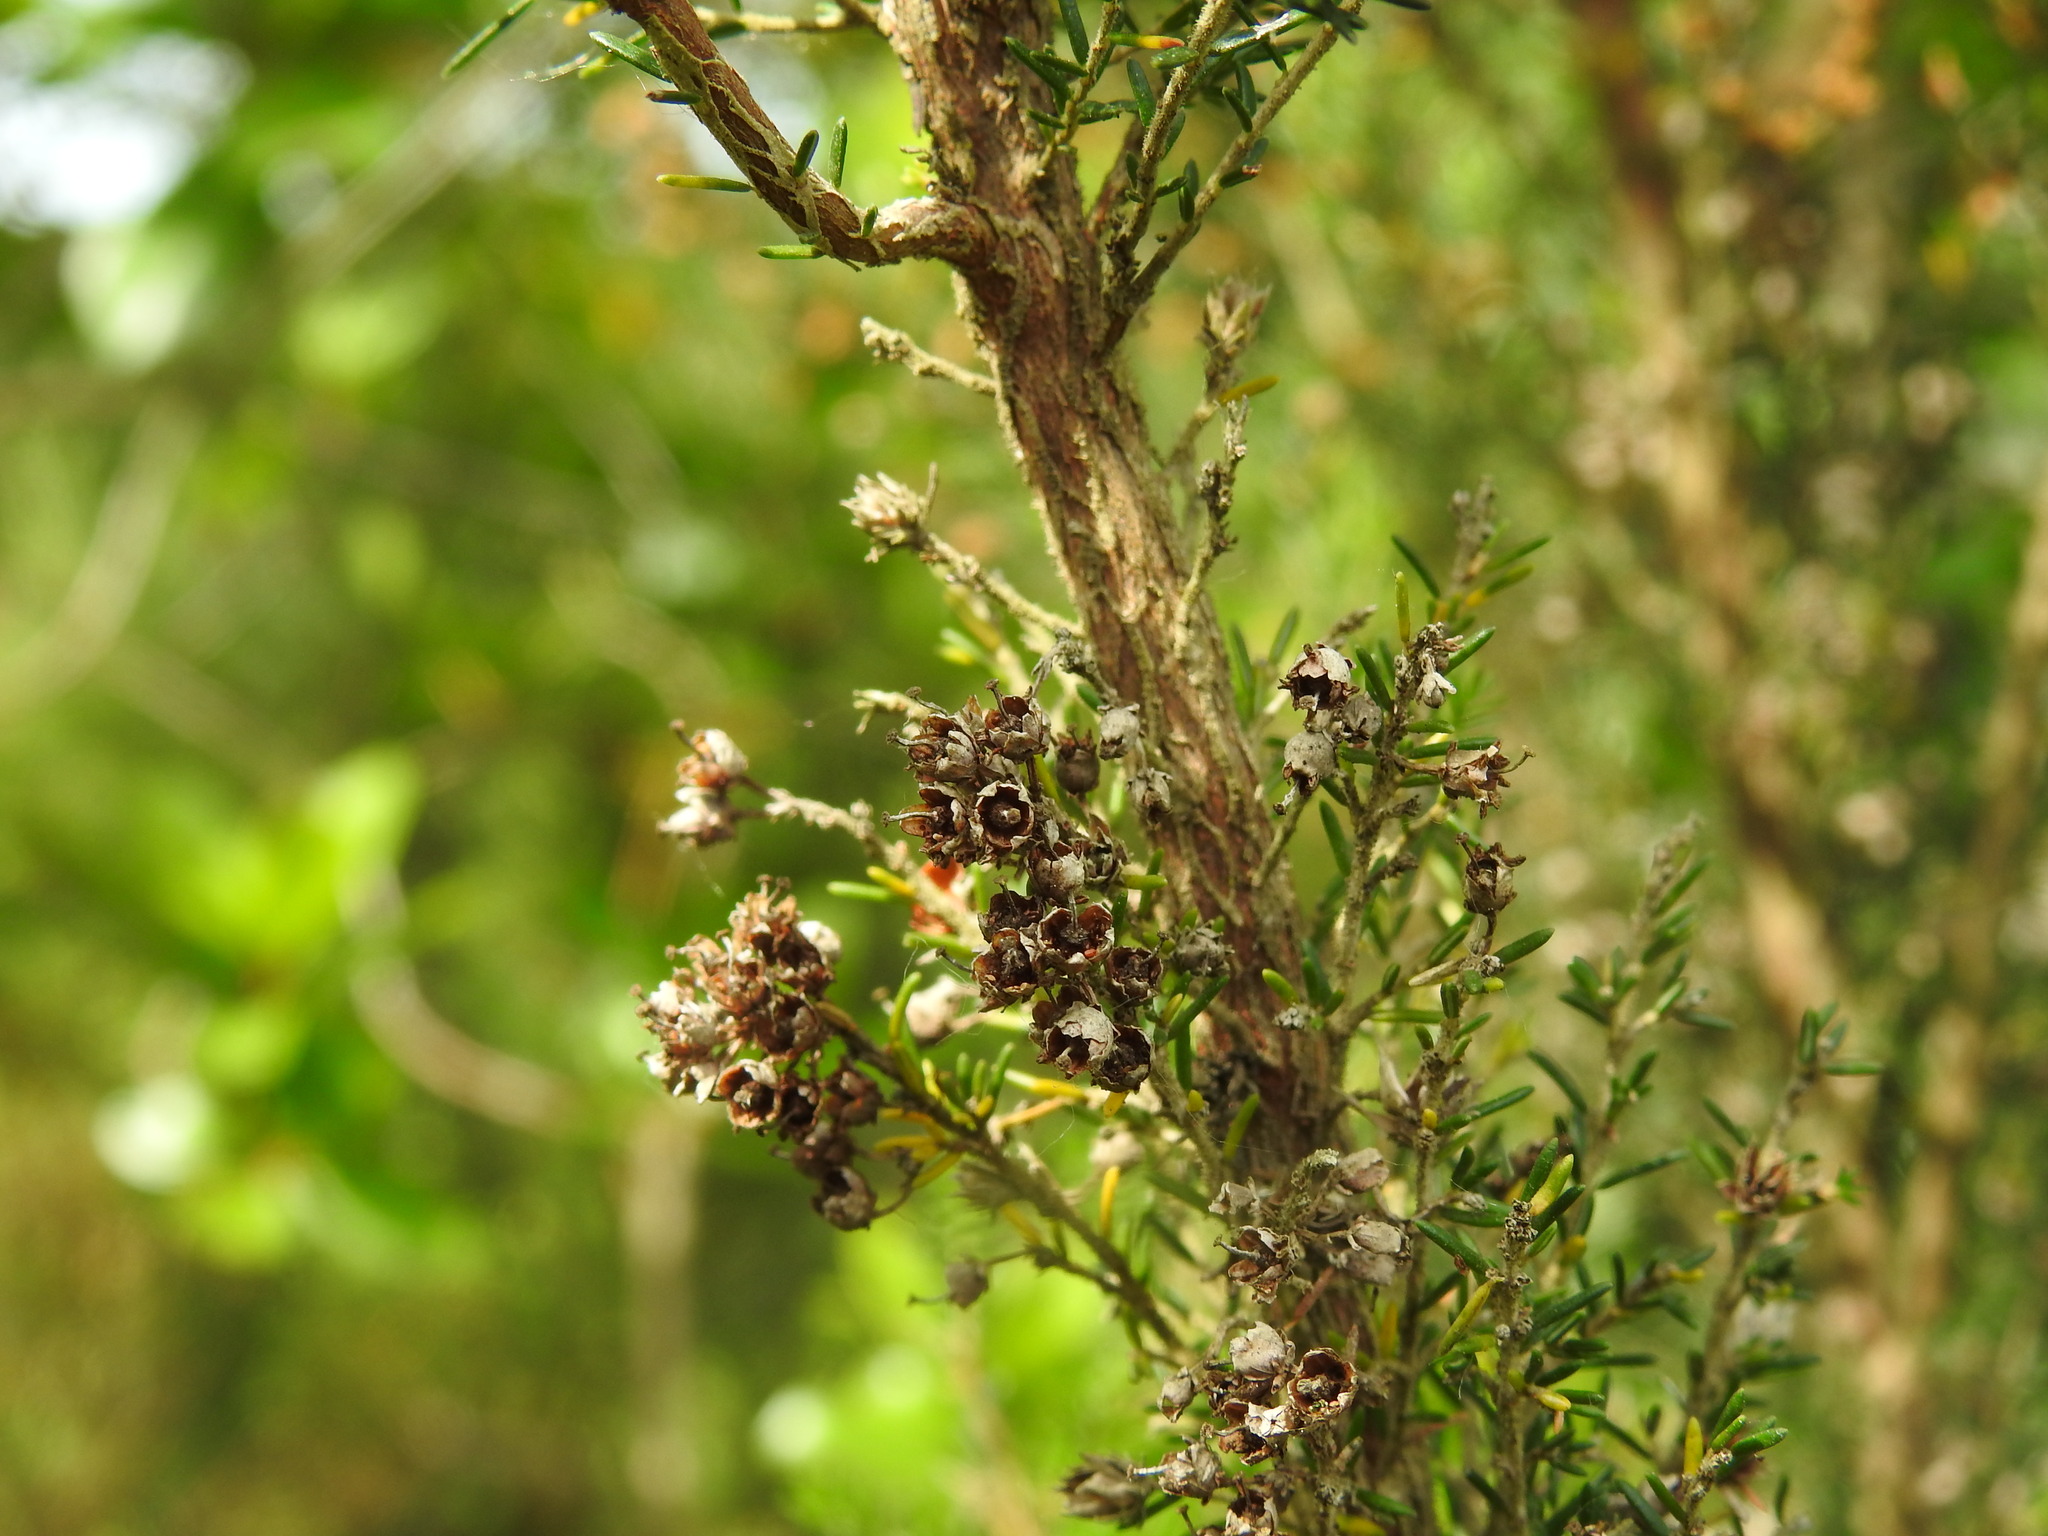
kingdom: Plantae
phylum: Tracheophyta
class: Magnoliopsida
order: Ericales
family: Ericaceae
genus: Erica
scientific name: Erica arborea
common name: Tree heath
